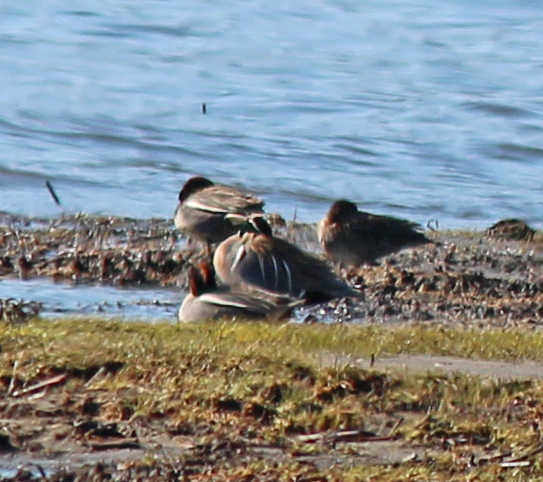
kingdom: Animalia
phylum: Chordata
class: Aves
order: Anseriformes
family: Anatidae
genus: Sibirionetta
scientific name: Sibirionetta formosa
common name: Baikal teal
